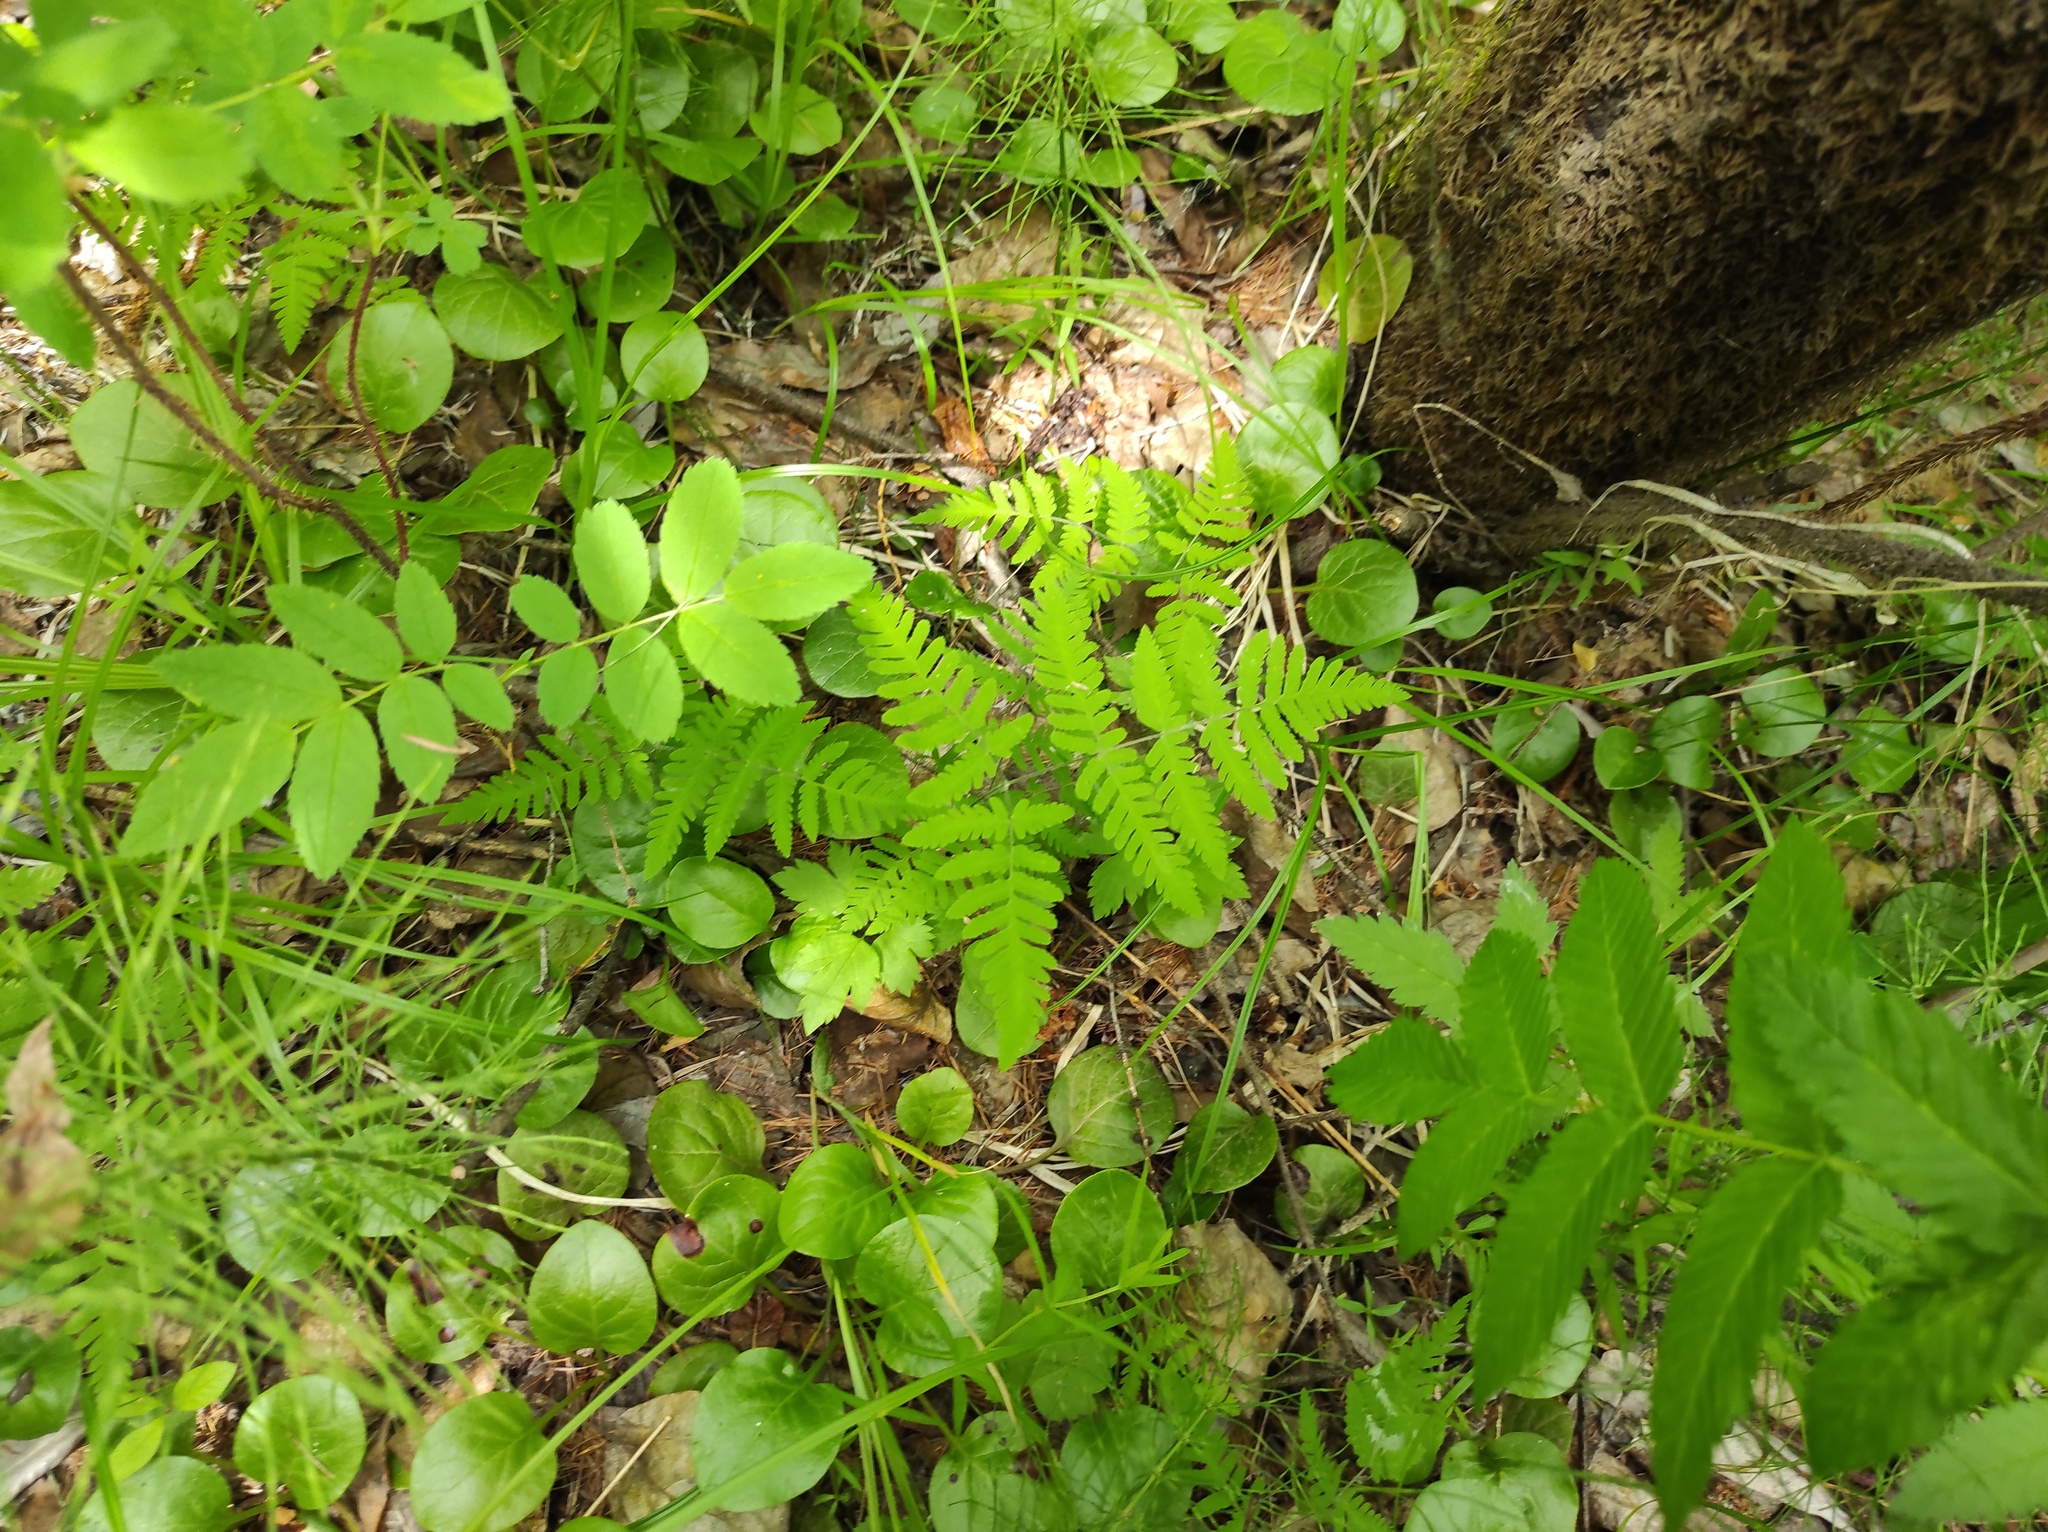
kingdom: Plantae
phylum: Tracheophyta
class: Polypodiopsida
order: Polypodiales
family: Cystopteridaceae
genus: Gymnocarpium
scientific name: Gymnocarpium continentale
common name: Asian oak fern
